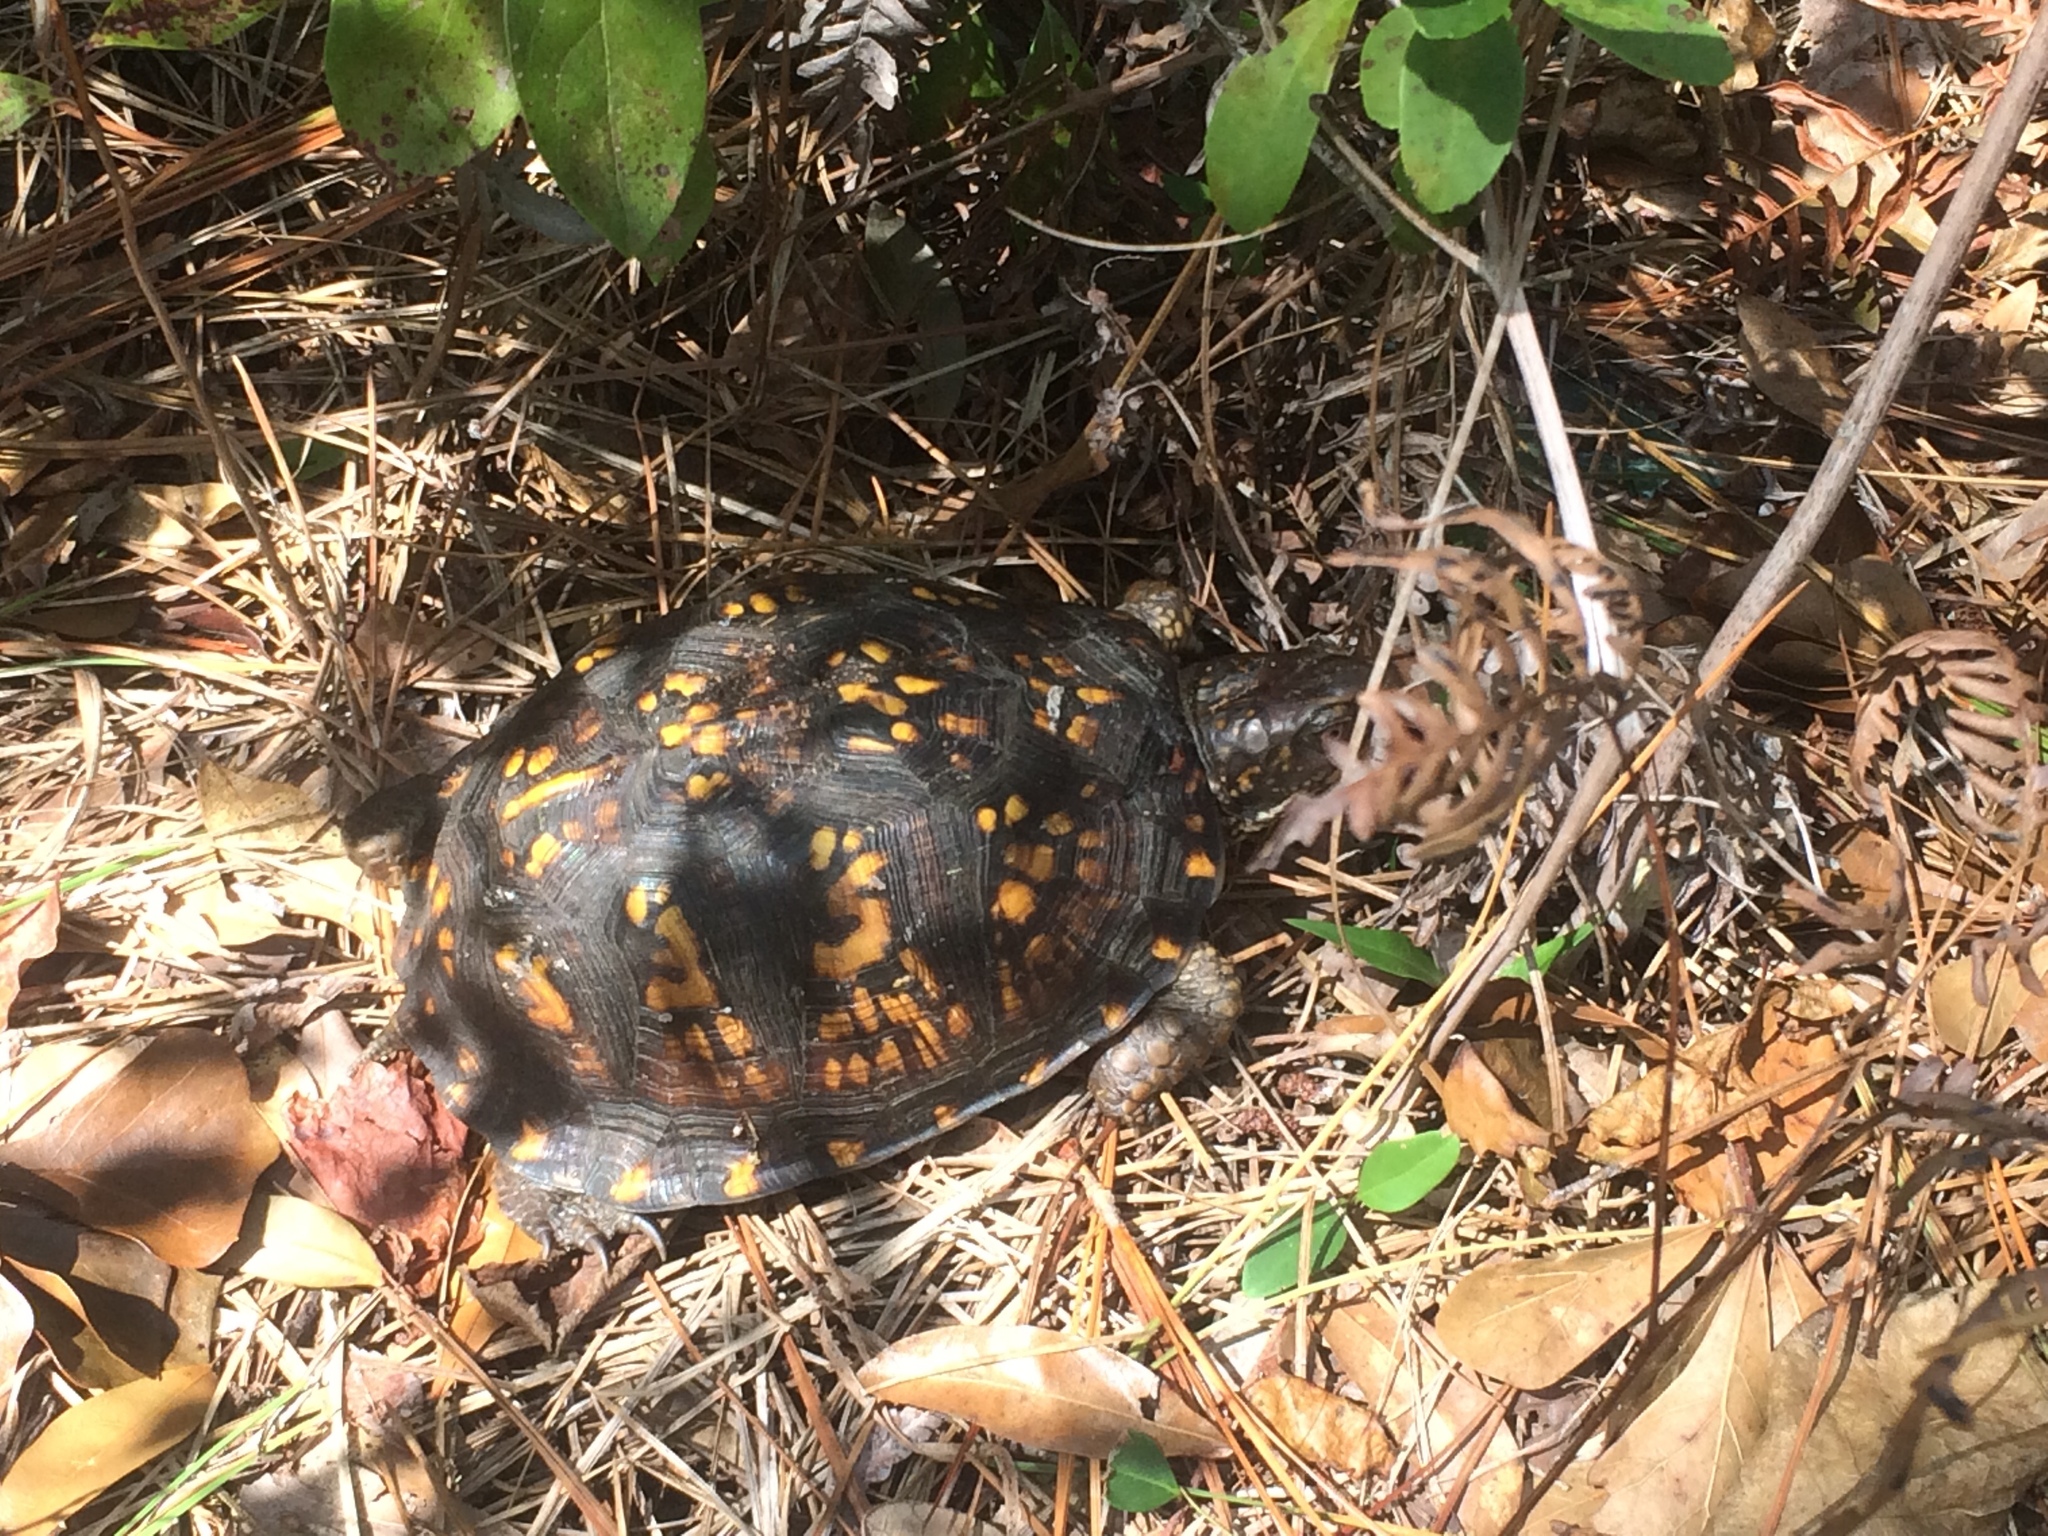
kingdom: Animalia
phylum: Chordata
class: Testudines
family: Emydidae
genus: Terrapene
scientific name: Terrapene carolina
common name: Common box turtle
